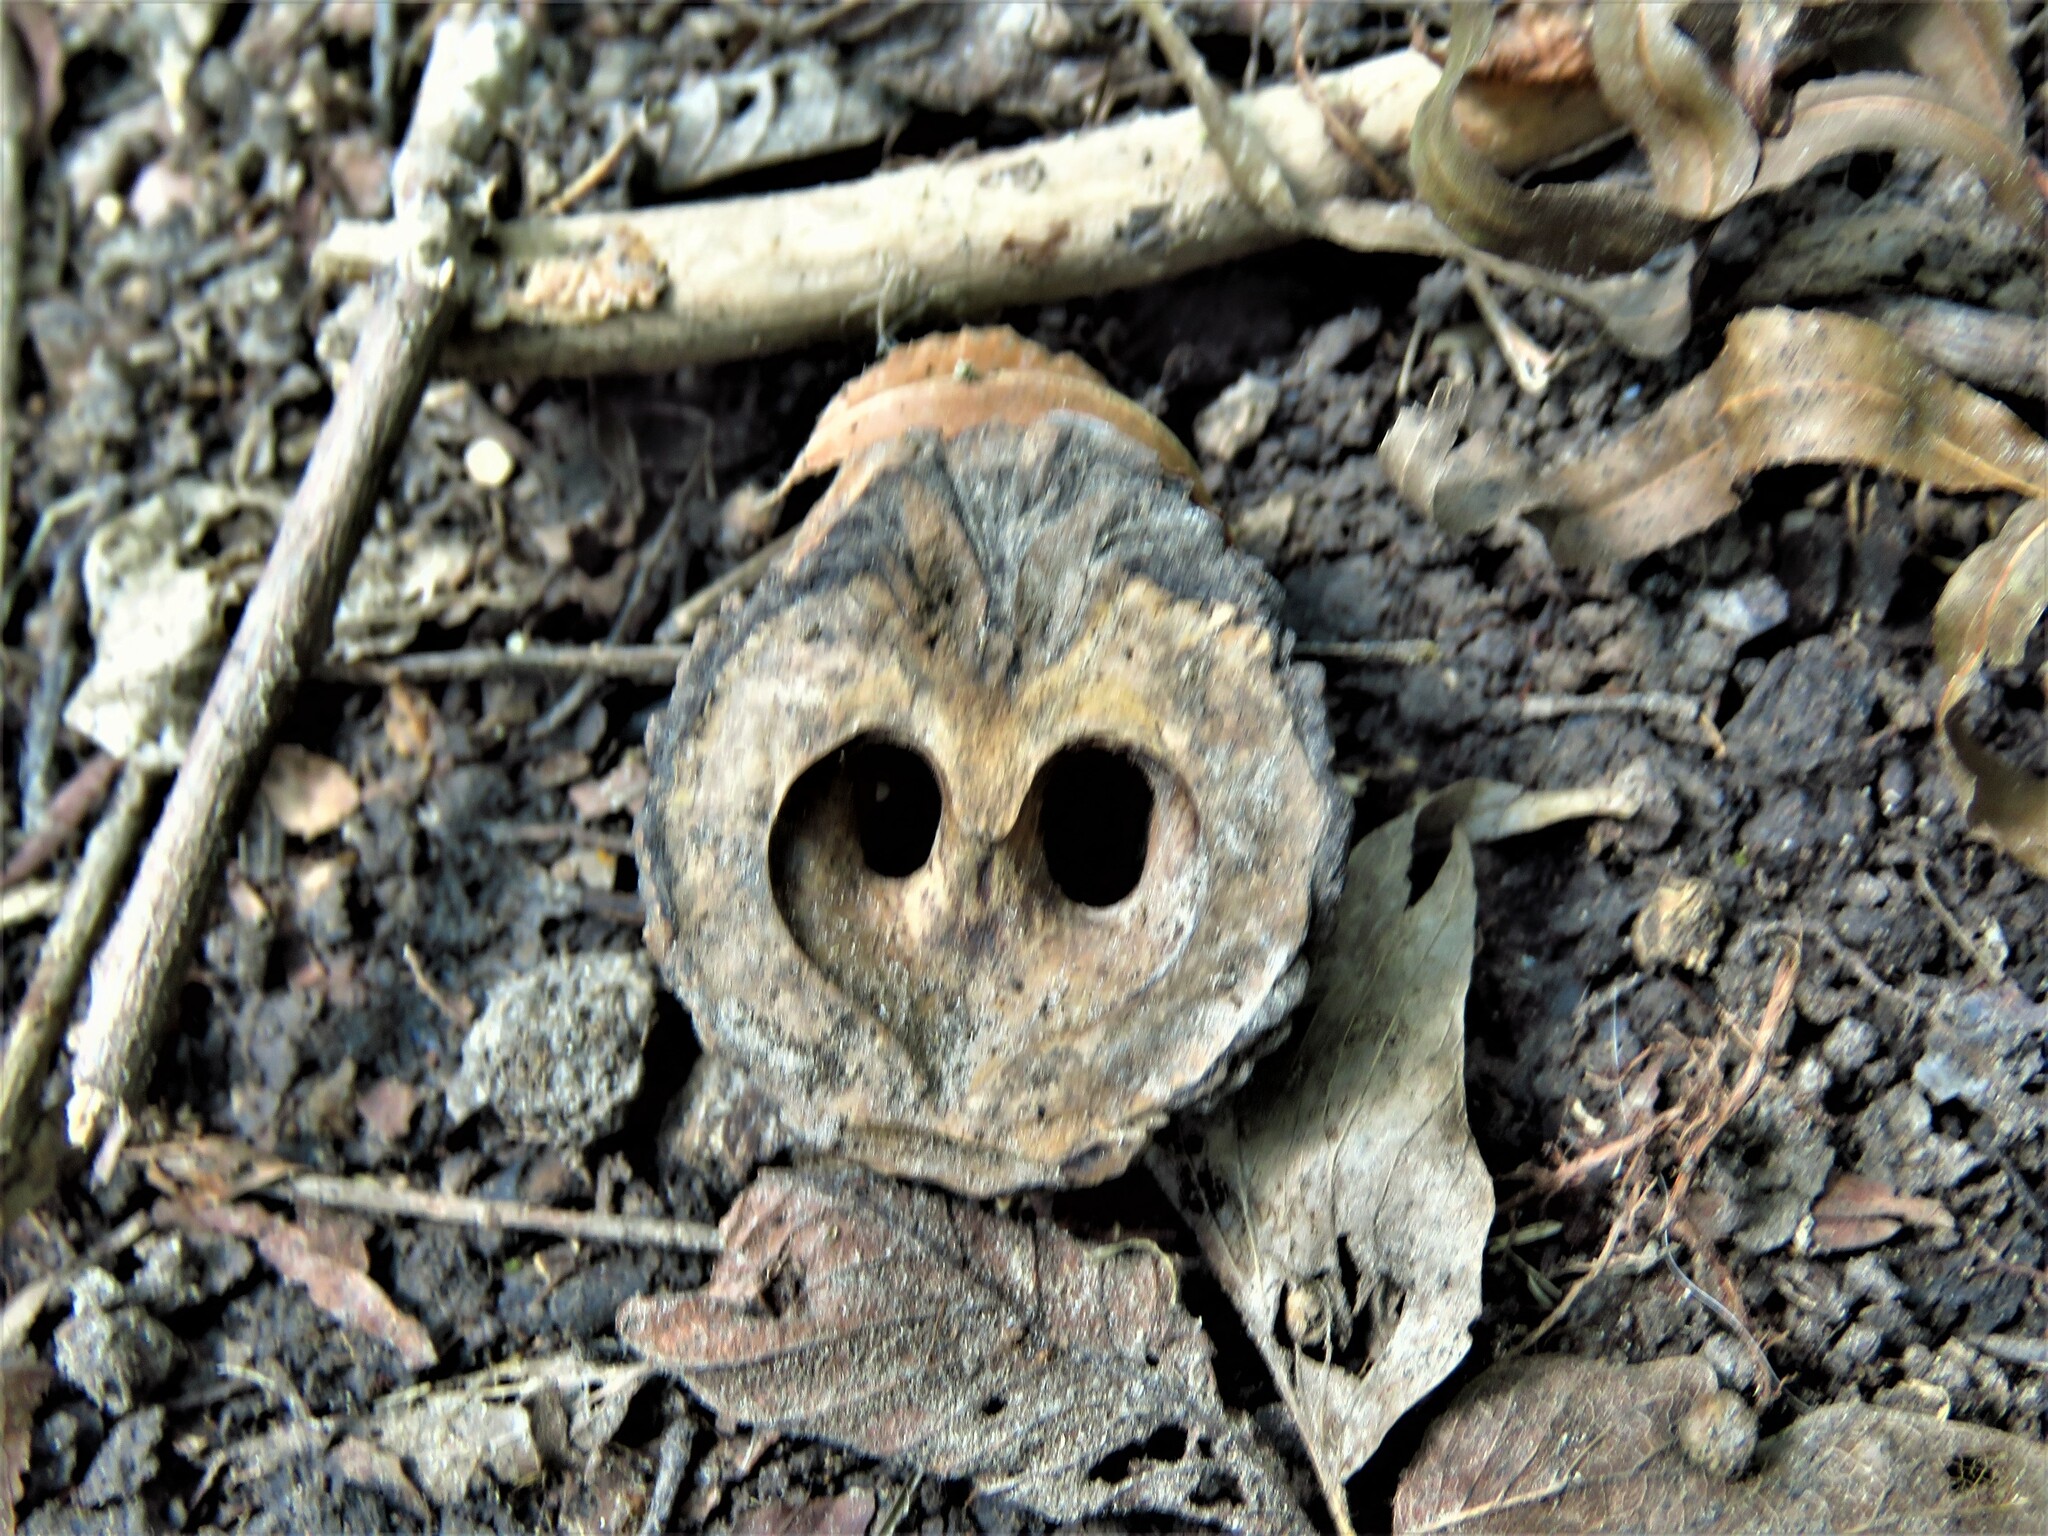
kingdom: Plantae
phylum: Tracheophyta
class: Magnoliopsida
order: Fagales
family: Juglandaceae
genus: Juglans
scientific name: Juglans nigra
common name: Black walnut
